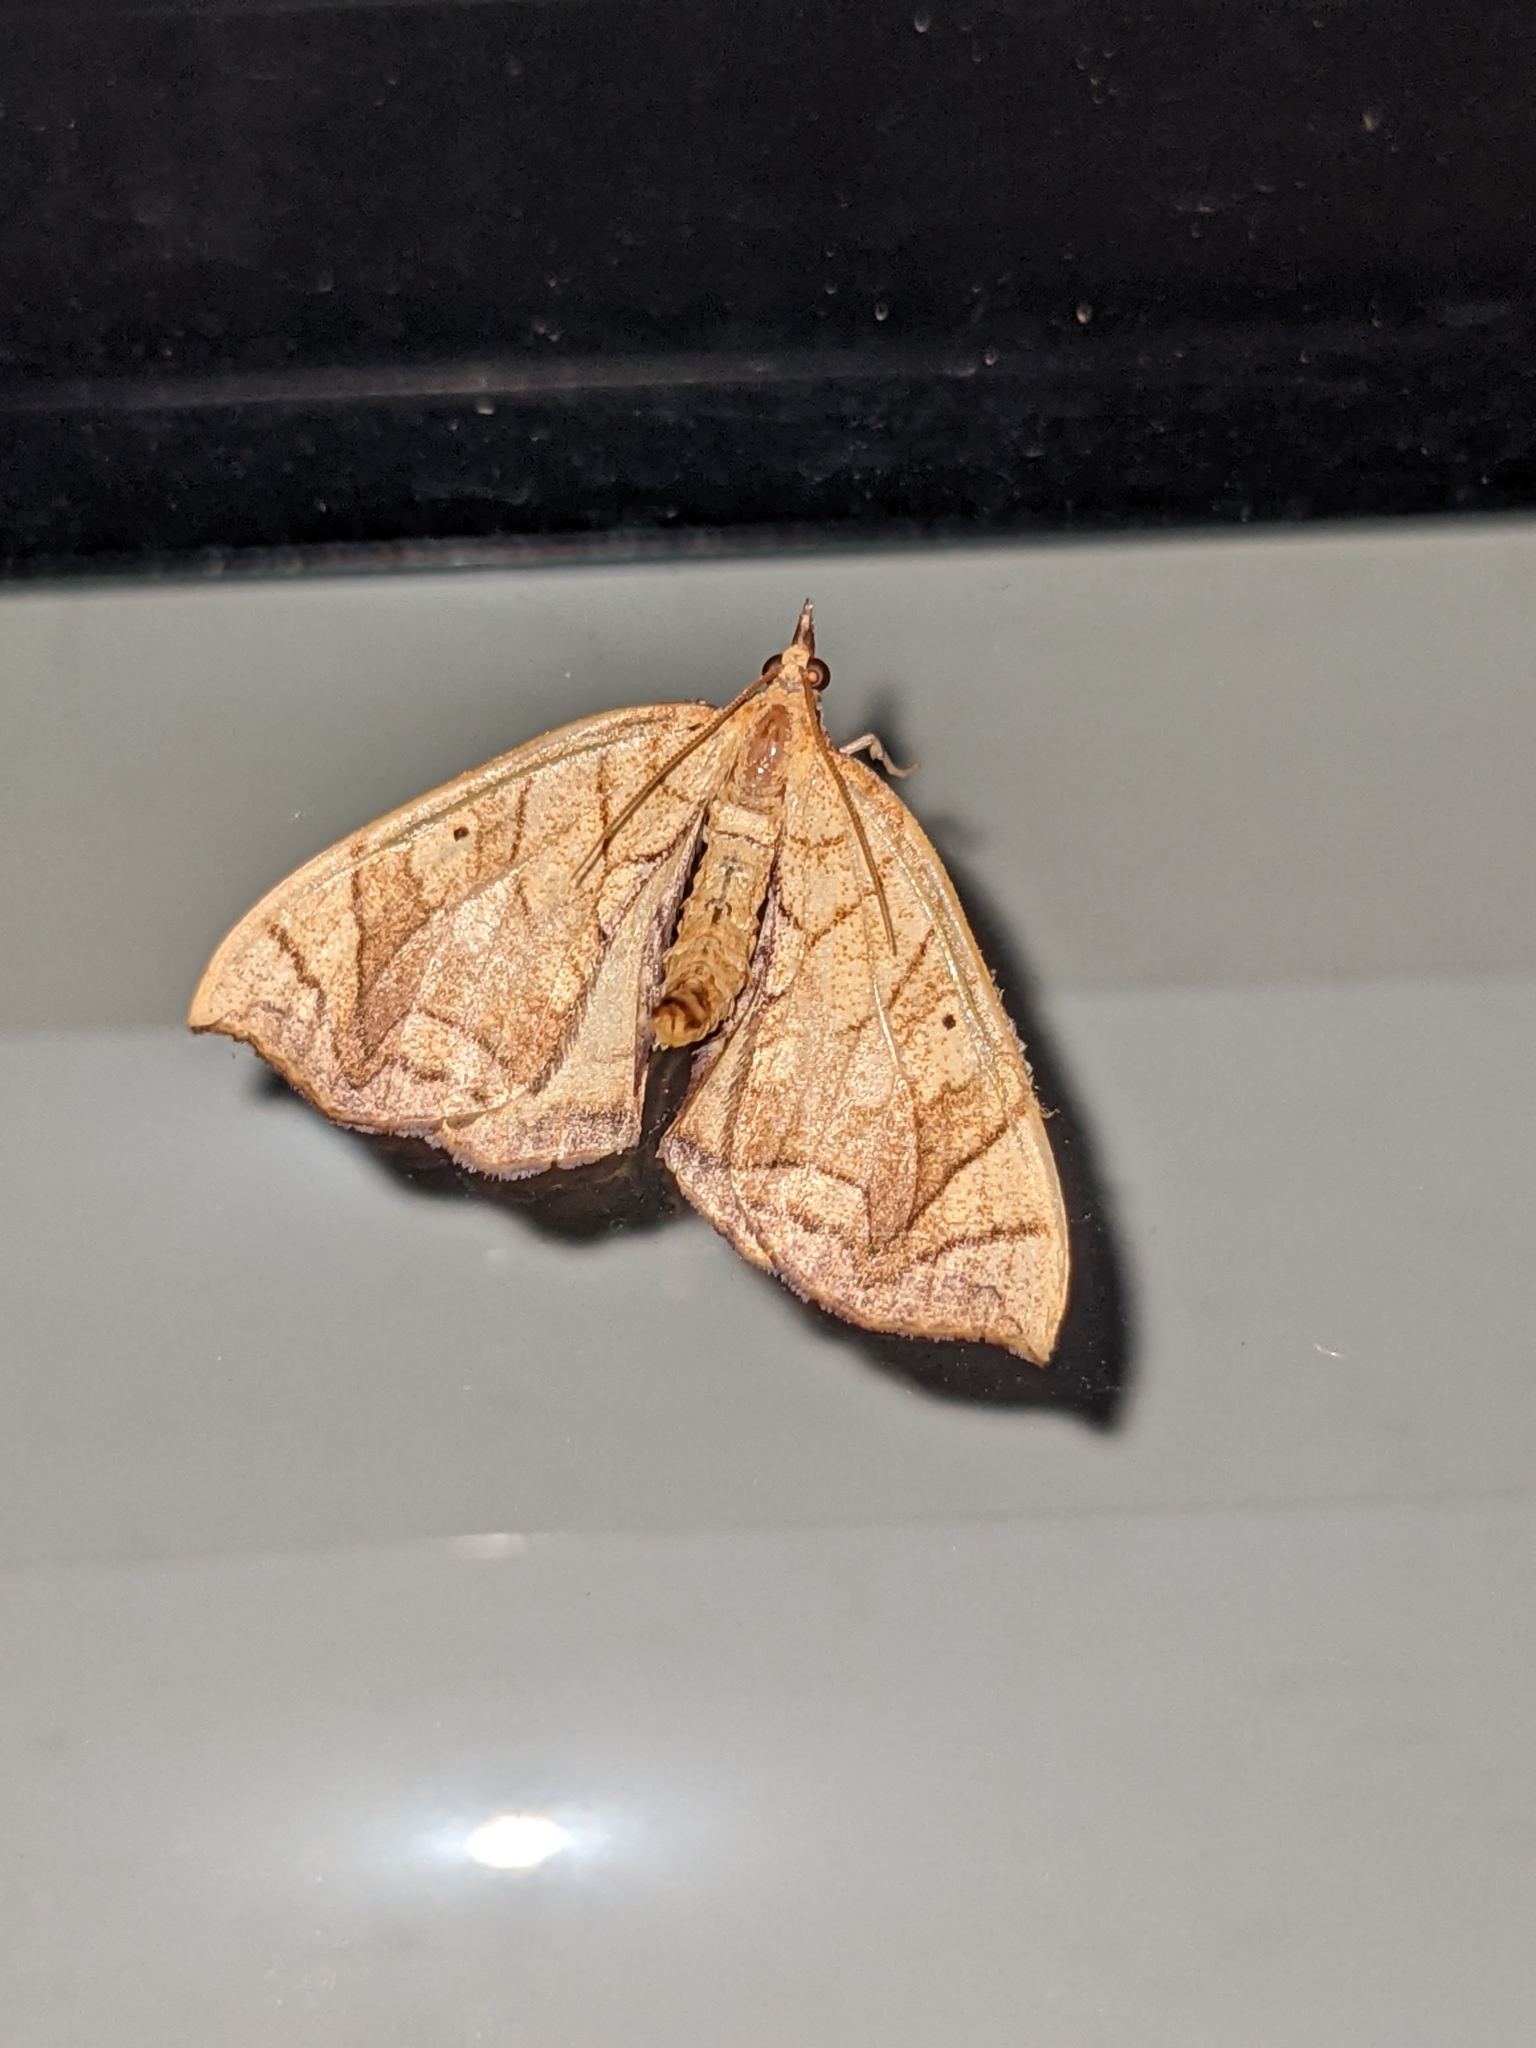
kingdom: Animalia
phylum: Arthropoda
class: Insecta
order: Lepidoptera
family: Geometridae
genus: Eulithis
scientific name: Eulithis
